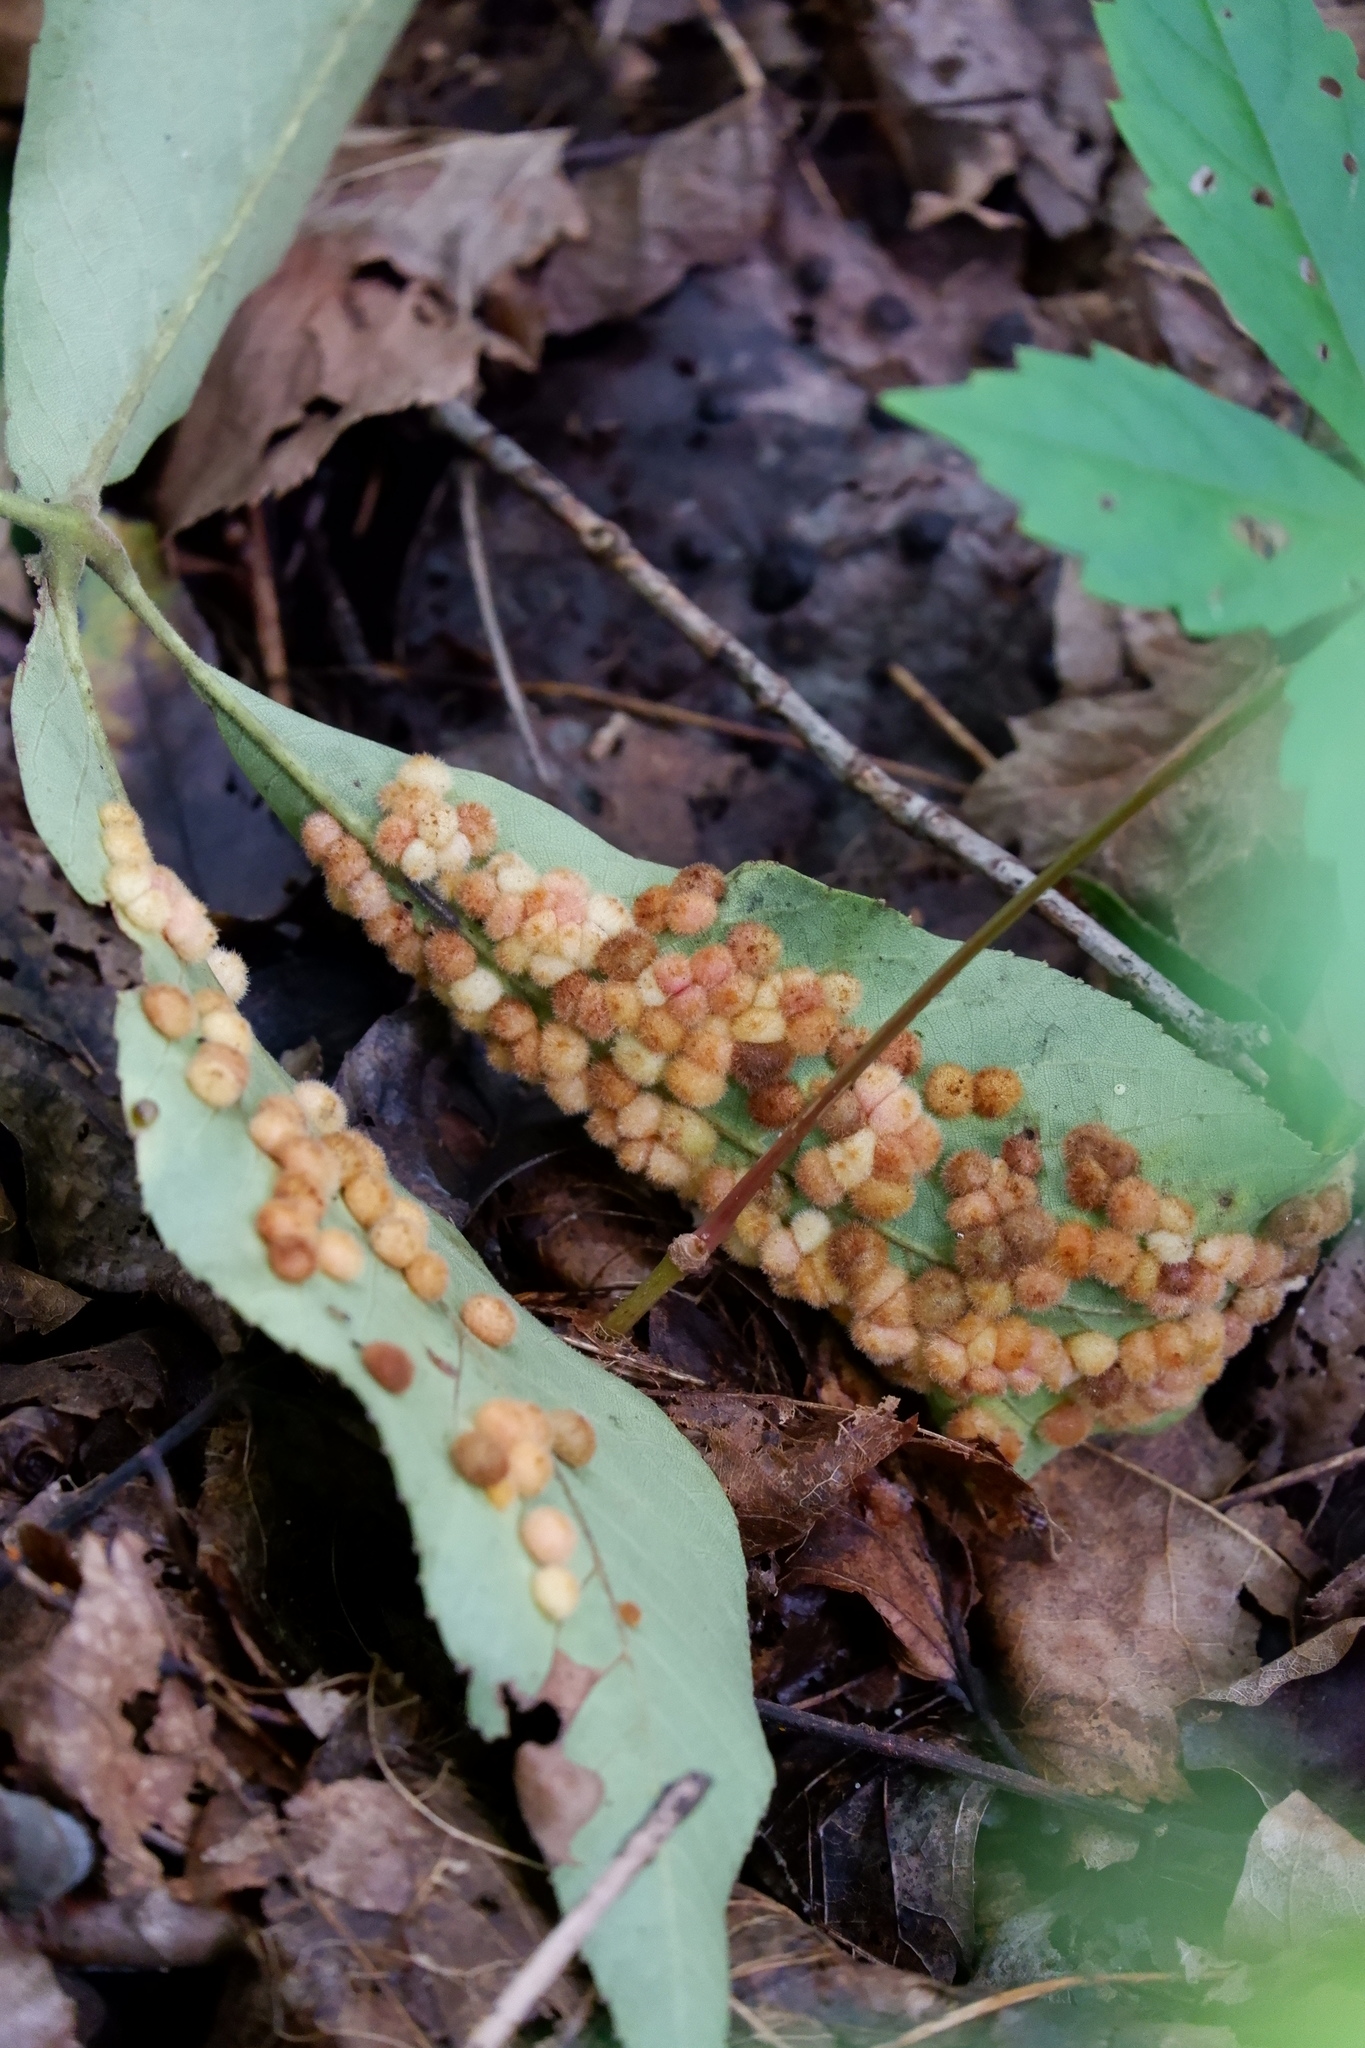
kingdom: Animalia
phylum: Arthropoda
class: Insecta
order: Diptera
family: Cecidomyiidae
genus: Caryomyia
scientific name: Caryomyia thompsoni
